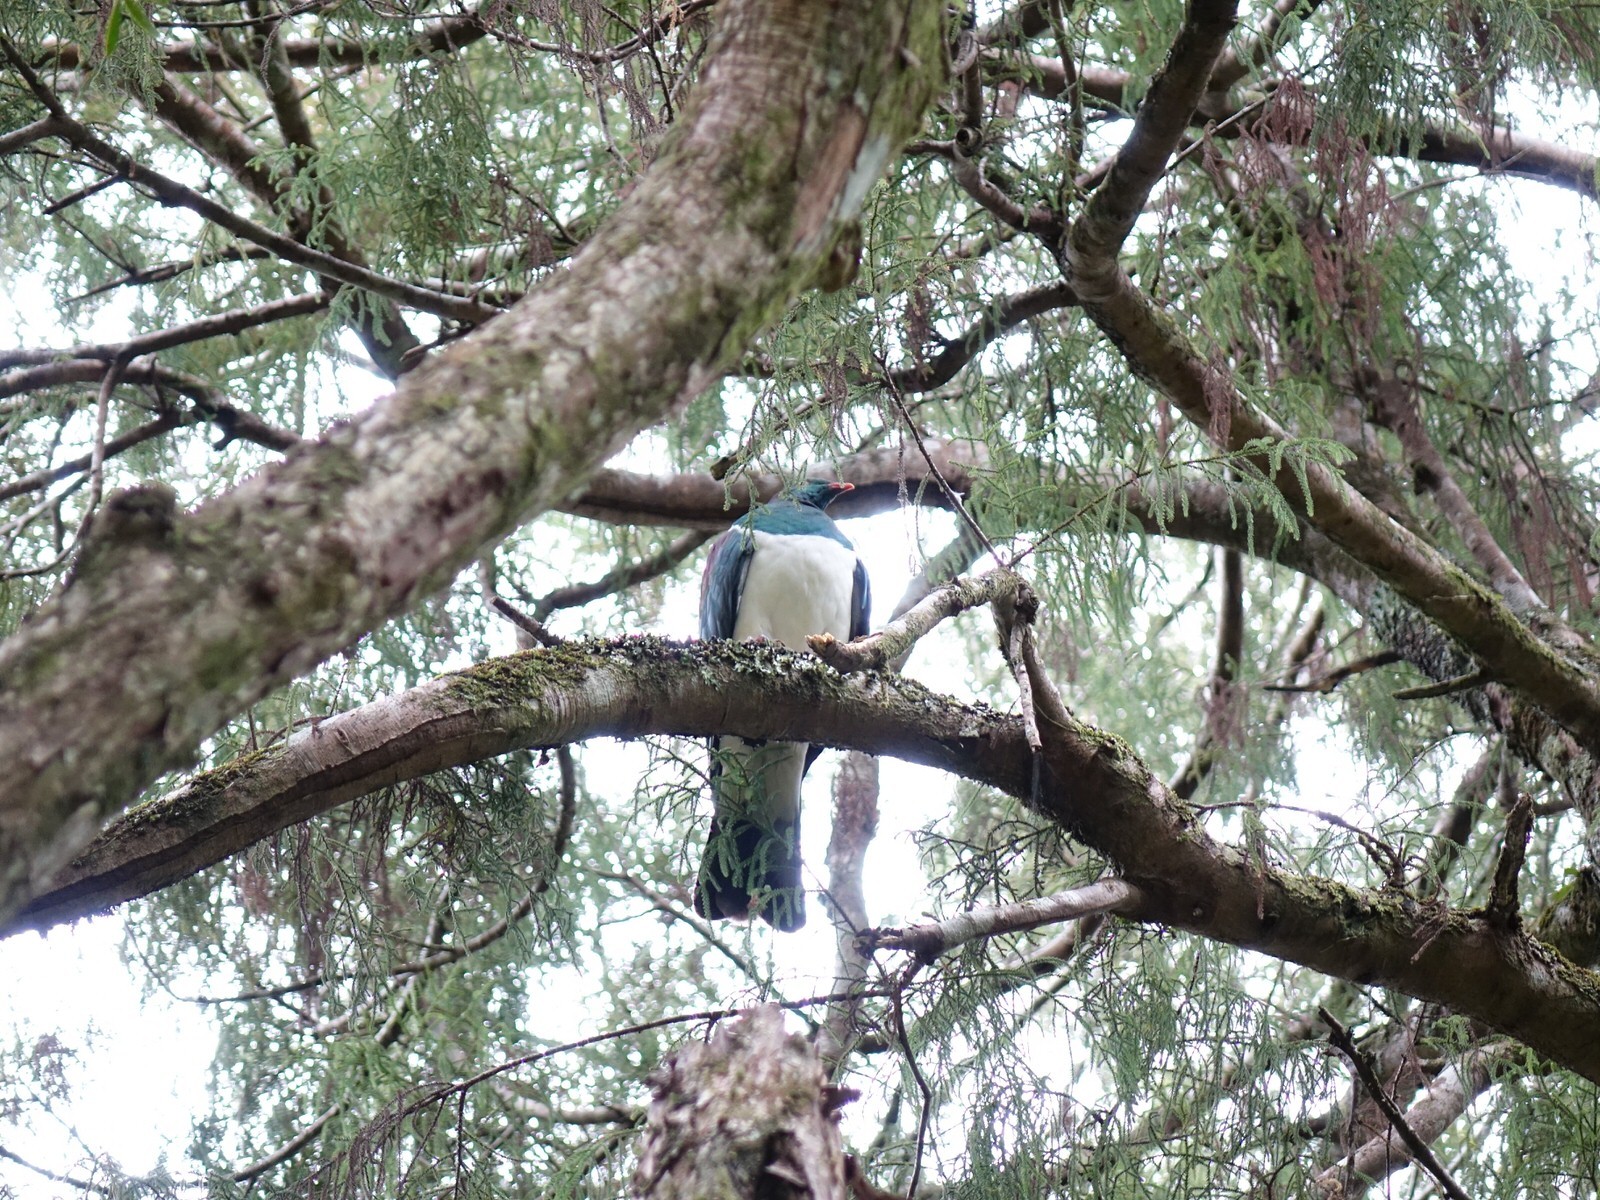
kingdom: Animalia
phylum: Chordata
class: Aves
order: Columbiformes
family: Columbidae
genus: Hemiphaga
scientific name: Hemiphaga novaeseelandiae
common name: New zealand pigeon
